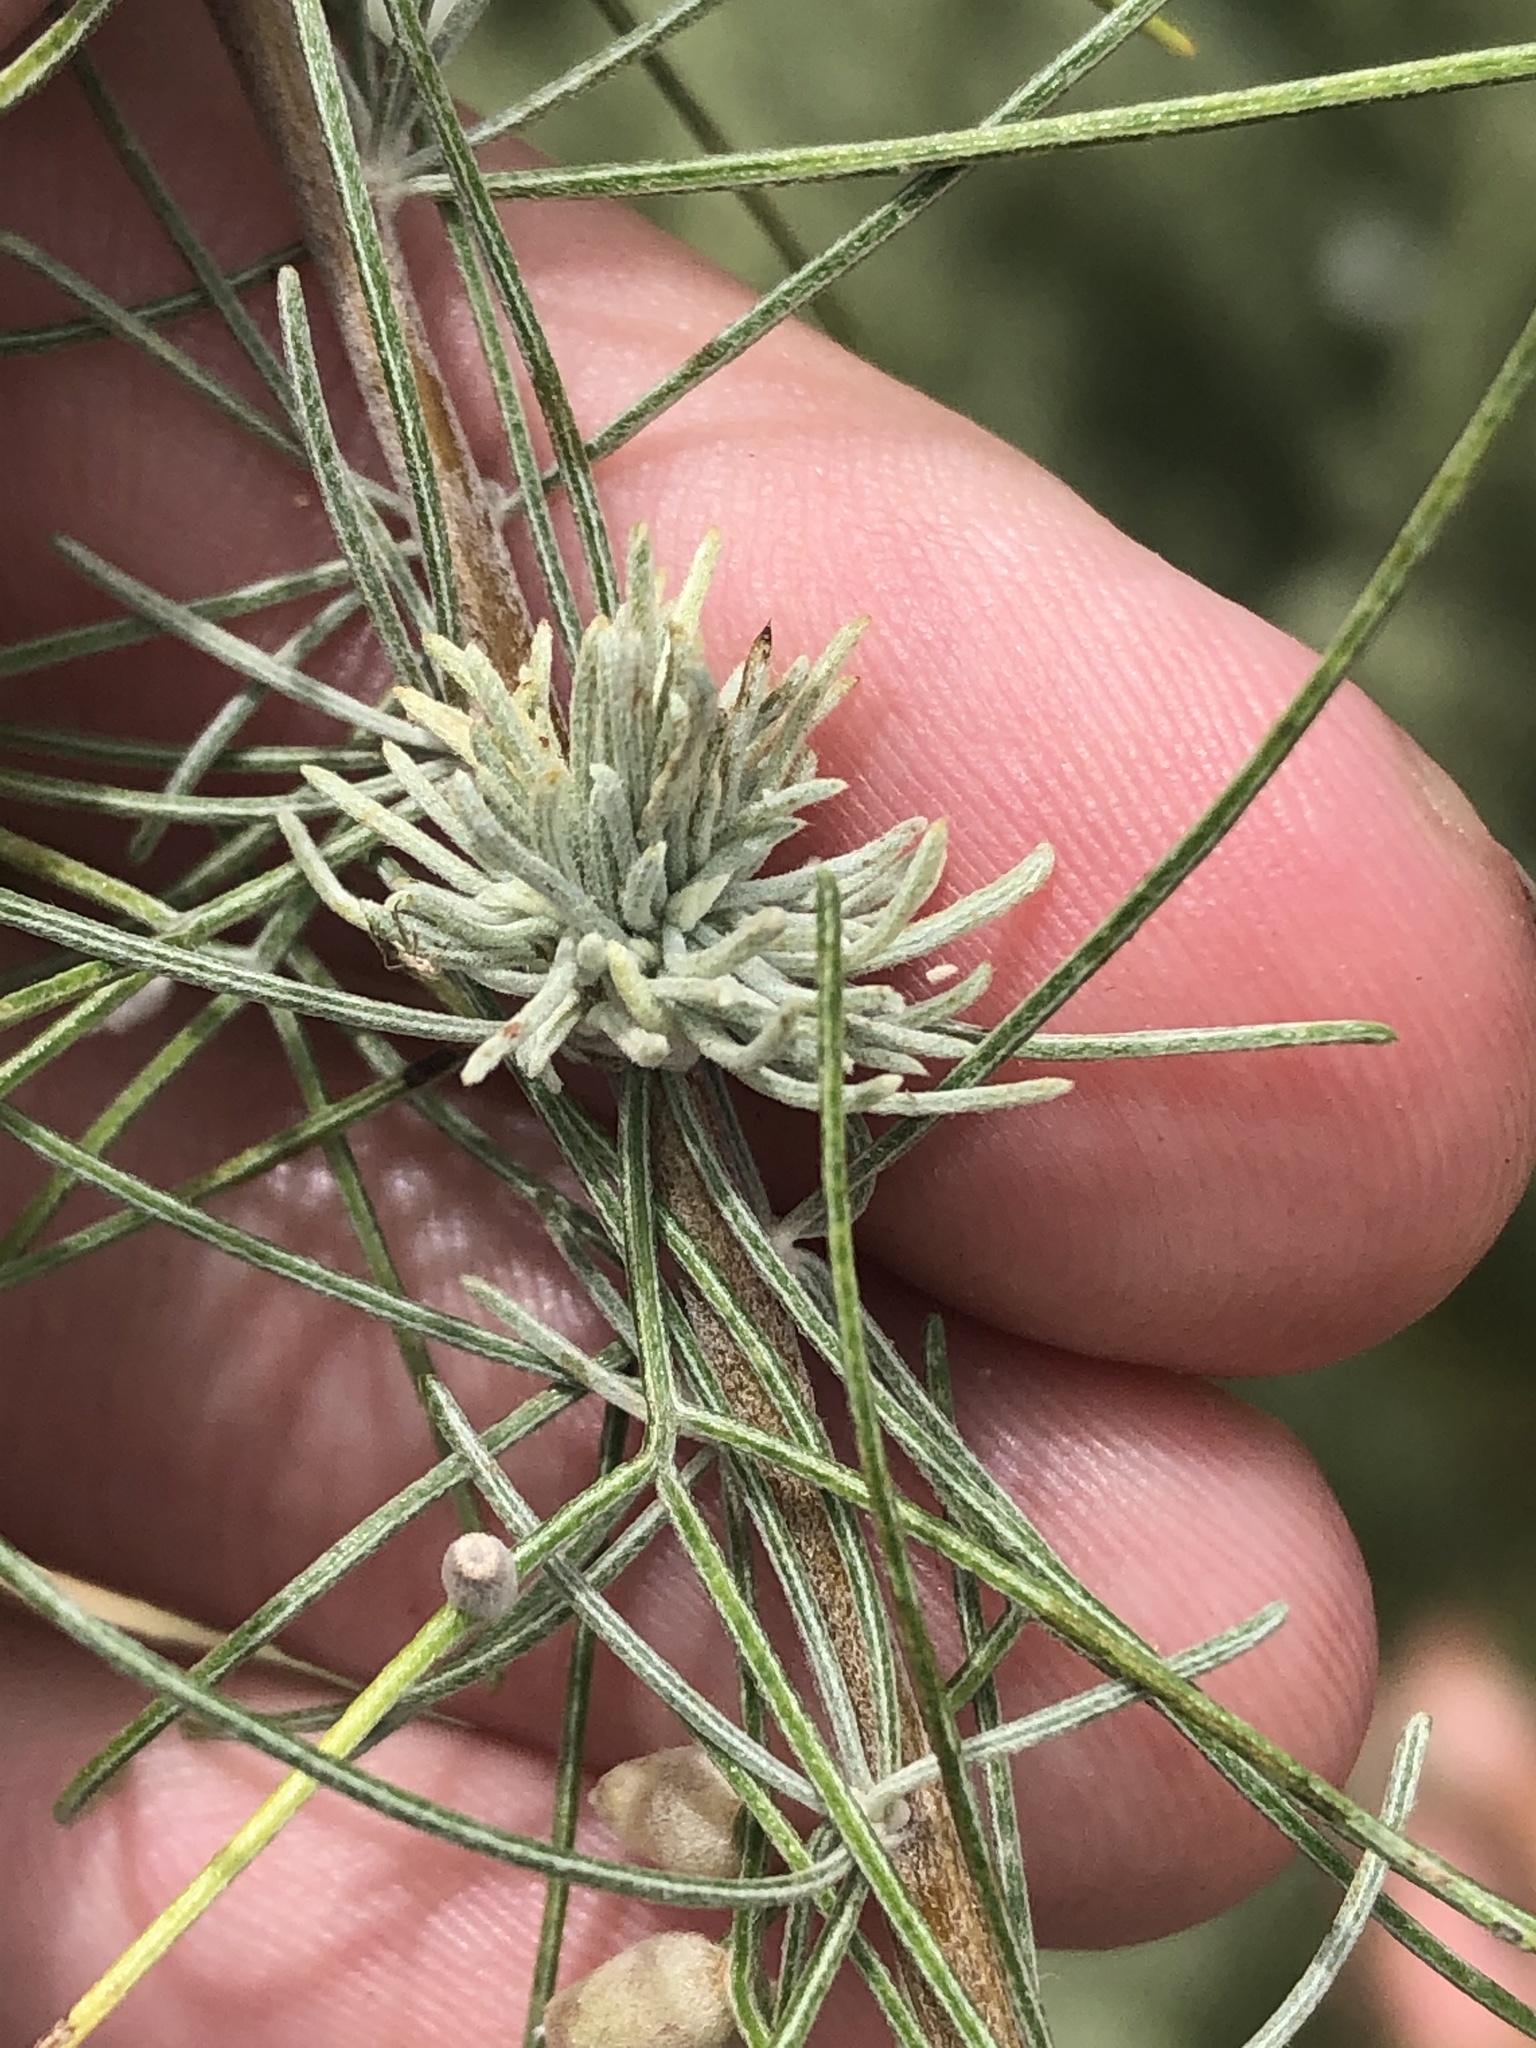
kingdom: Plantae
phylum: Tracheophyta
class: Magnoliopsida
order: Asterales
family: Asteraceae
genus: Artemisia
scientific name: Artemisia filifolia
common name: Sand-sage
